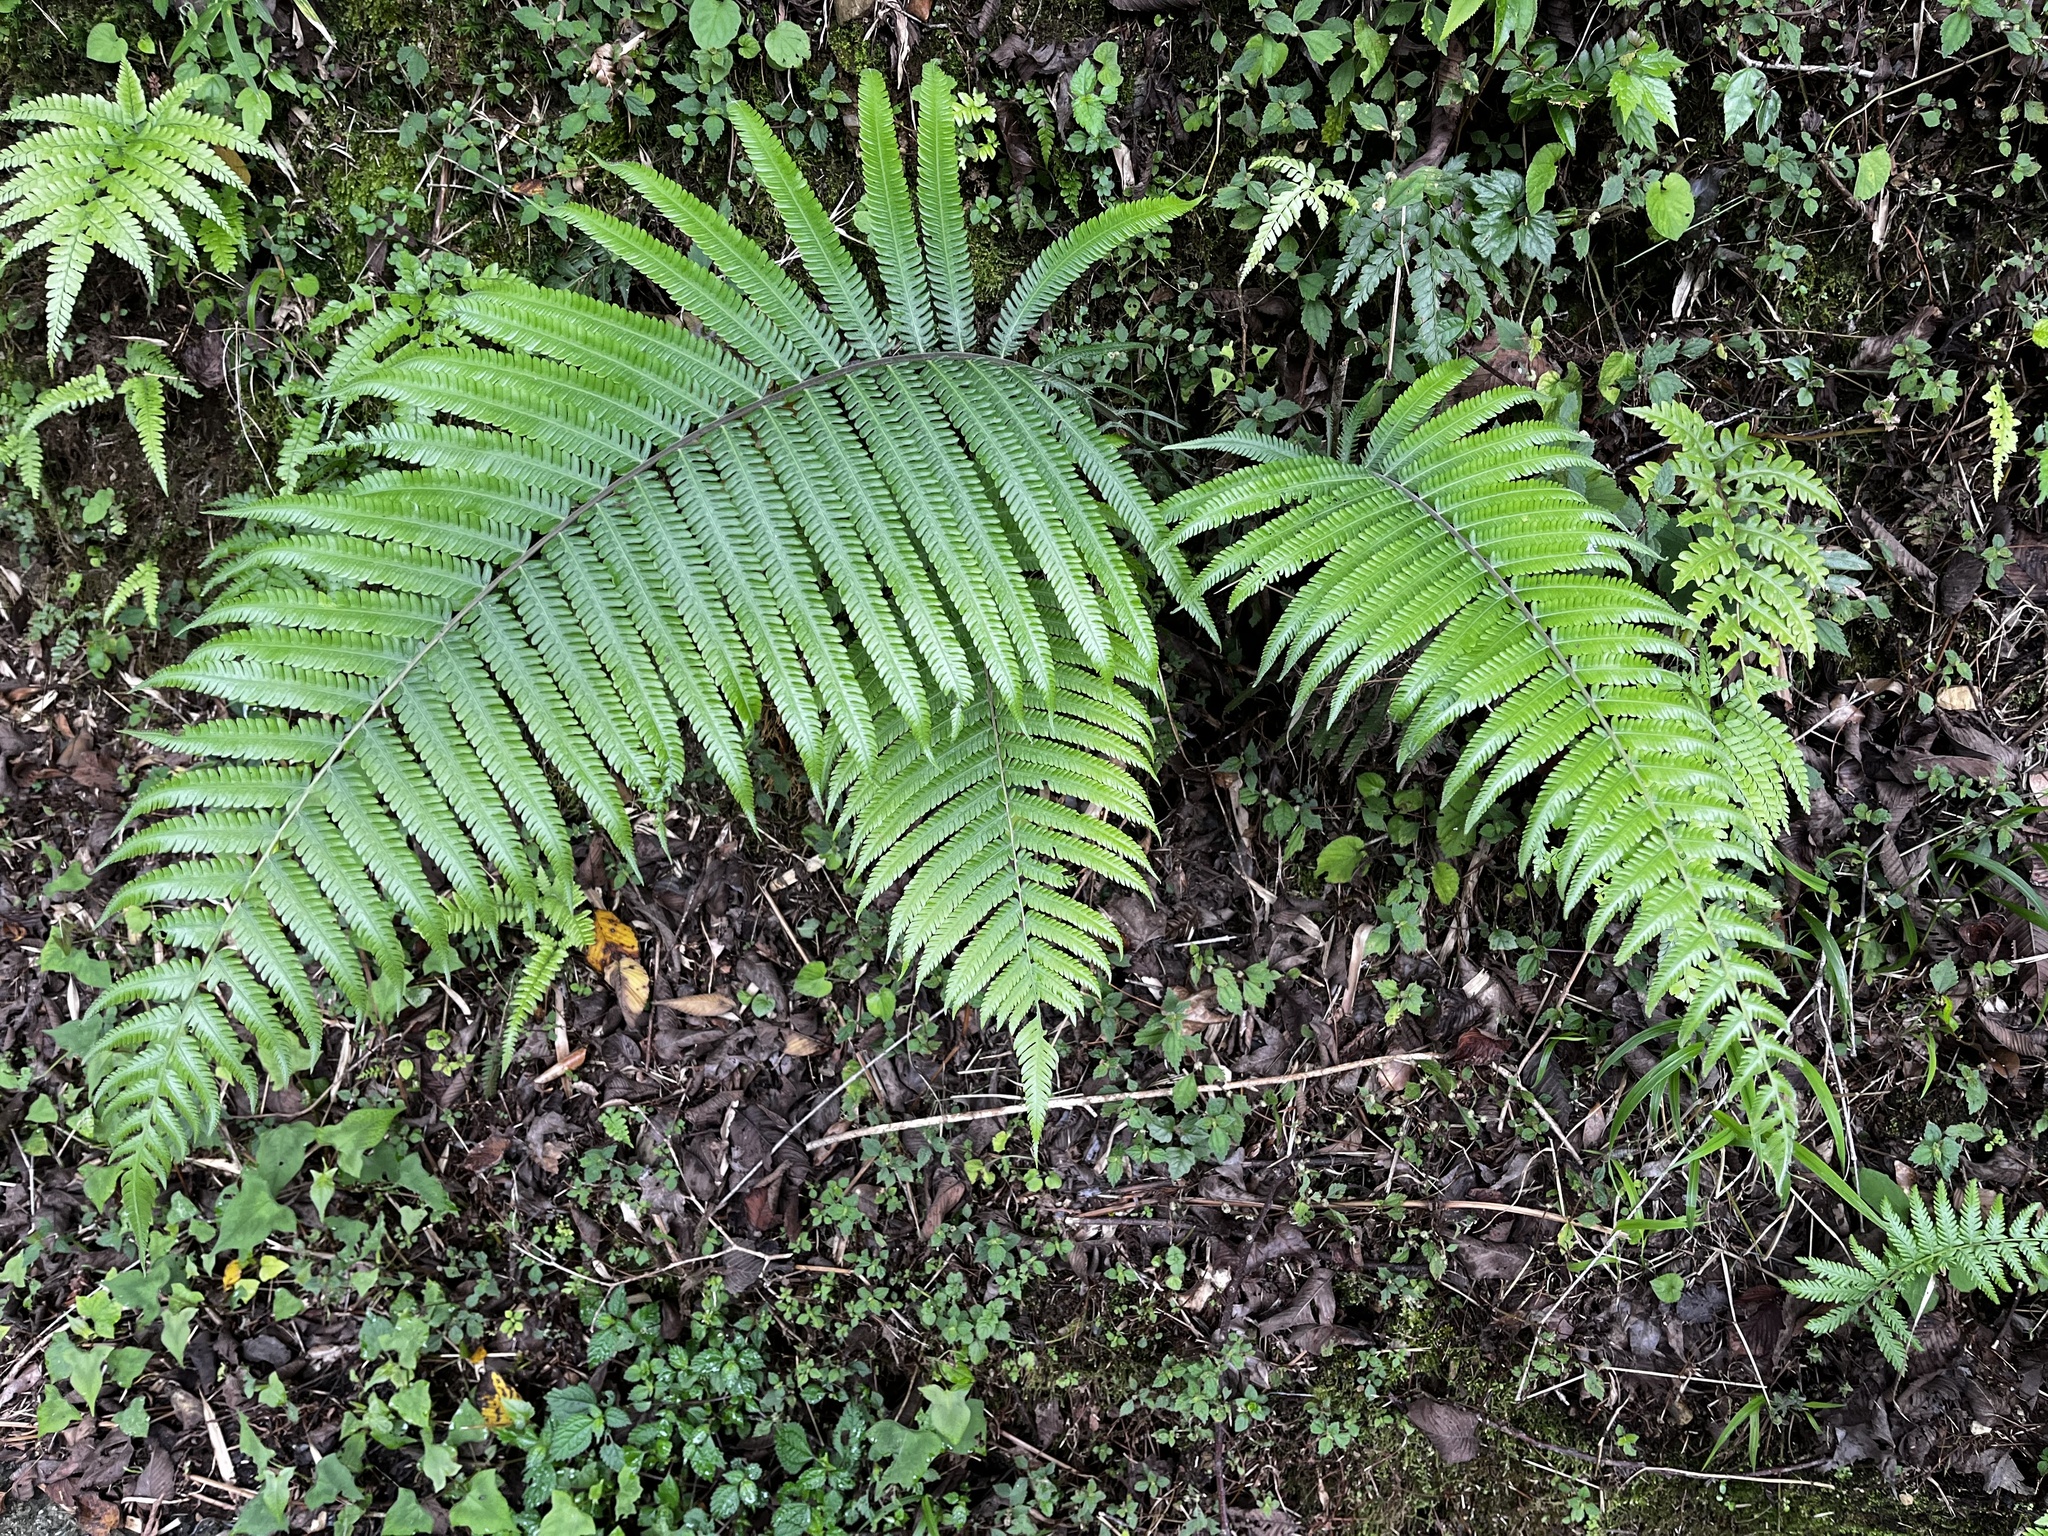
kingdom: Plantae
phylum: Tracheophyta
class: Polypodiopsida
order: Polypodiales
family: Thelypteridaceae
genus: Pseudocyclosorus
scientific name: Pseudocyclosorus esquirolii
